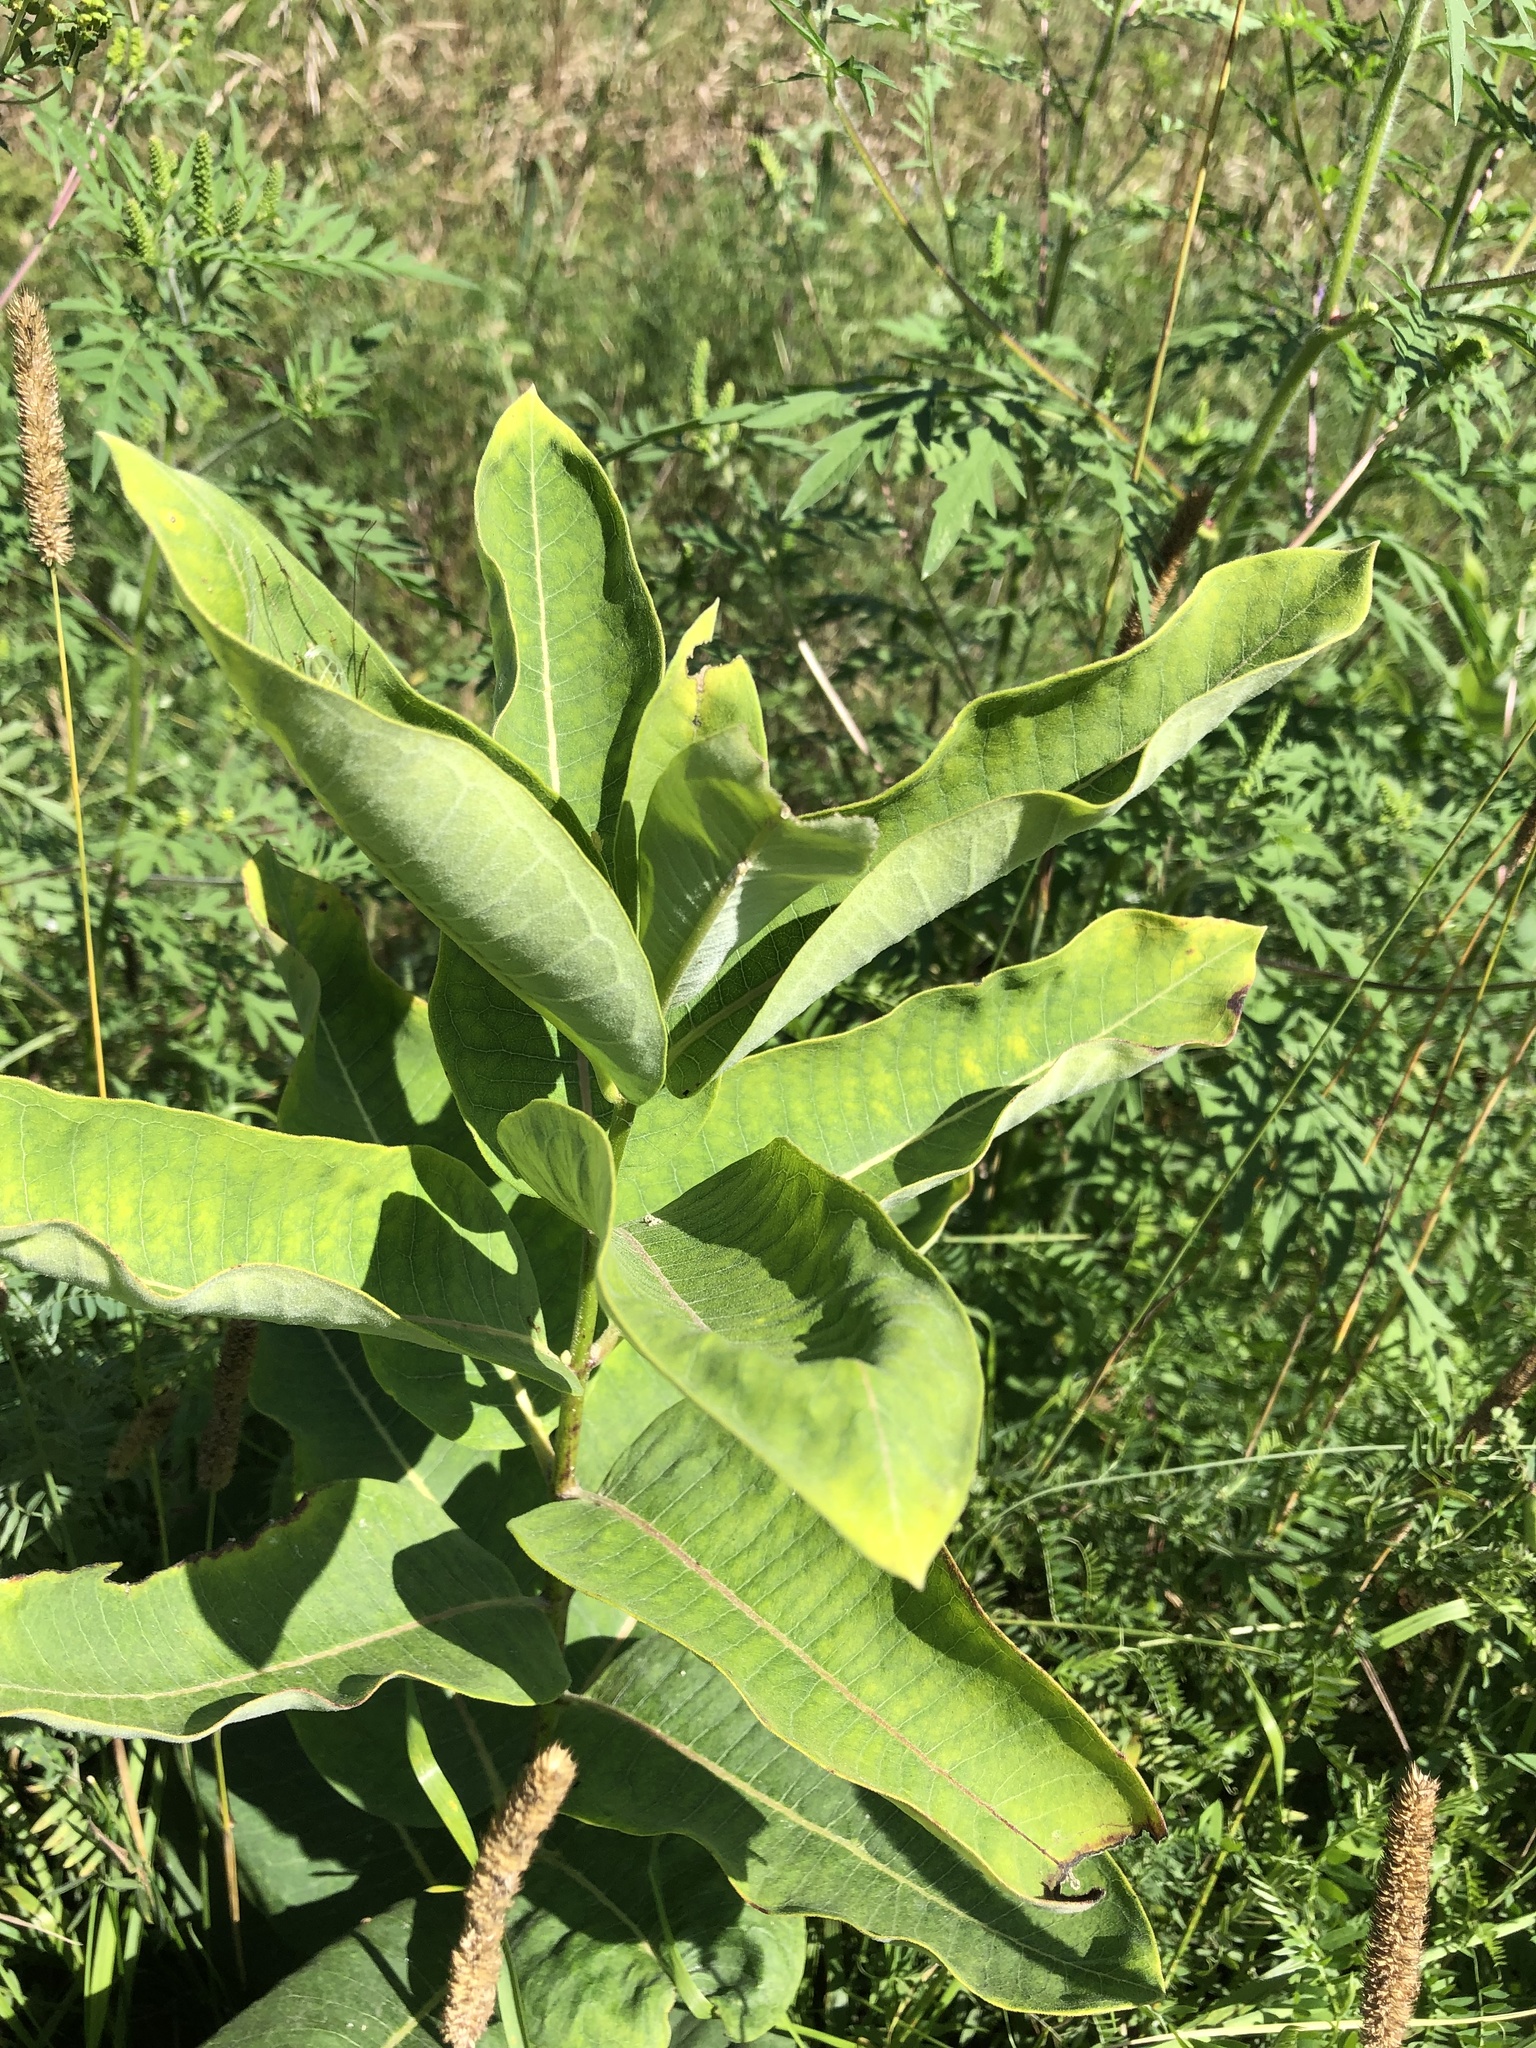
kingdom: Plantae
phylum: Tracheophyta
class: Magnoliopsida
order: Gentianales
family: Apocynaceae
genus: Asclepias
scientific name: Asclepias syriaca
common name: Common milkweed
